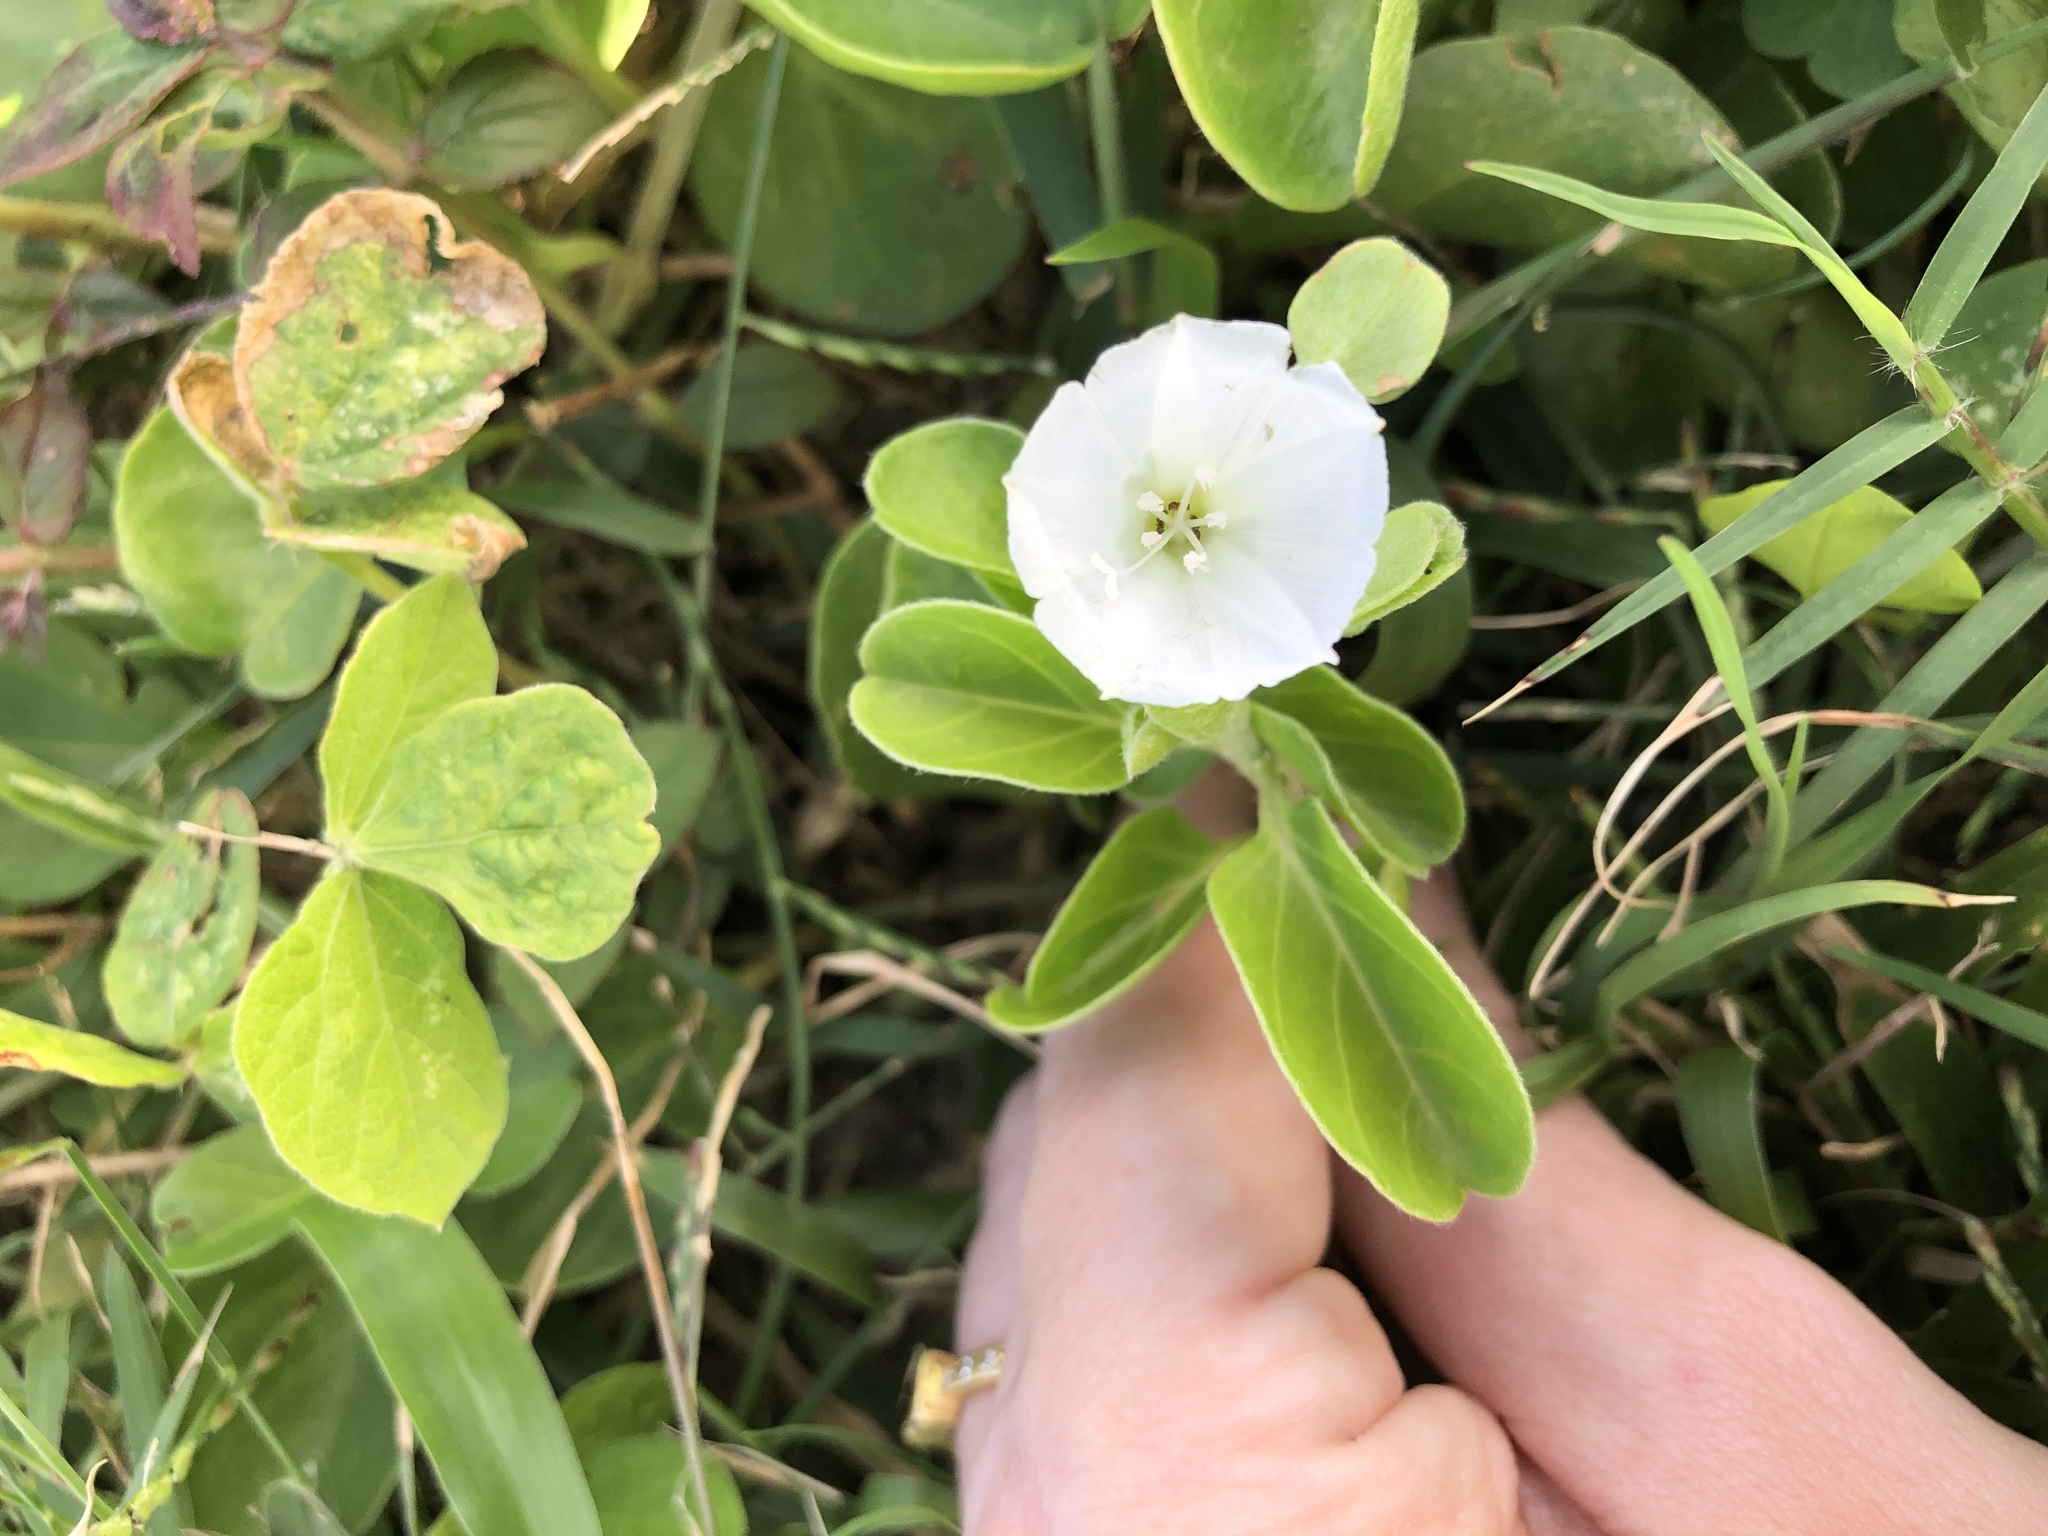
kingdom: Plantae
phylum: Tracheophyta
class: Magnoliopsida
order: Solanales
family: Convolvulaceae
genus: Jacquemontia
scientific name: Jacquemontia sandwicensis
